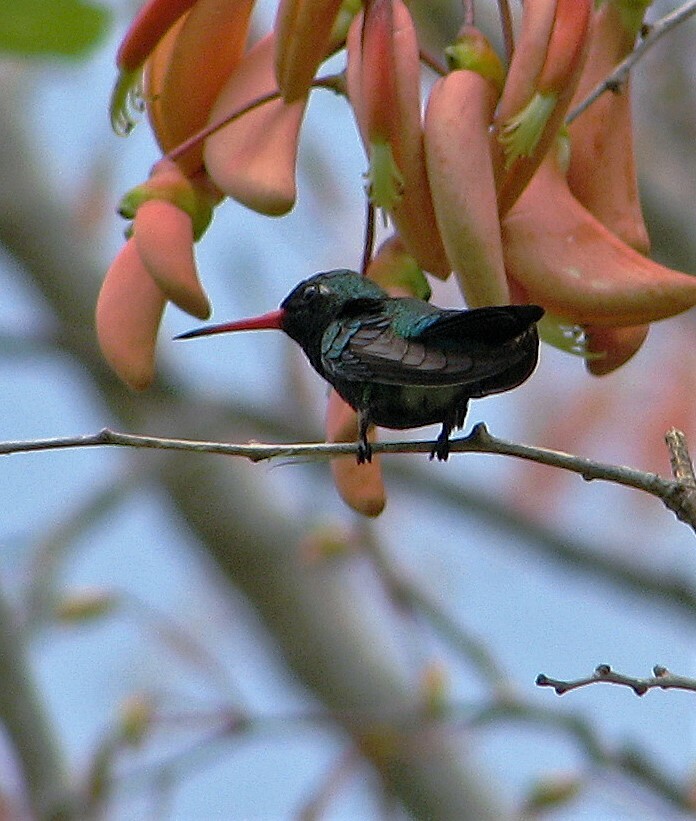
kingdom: Animalia
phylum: Chordata
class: Aves
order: Apodiformes
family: Trochilidae
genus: Chlorostilbon
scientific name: Chlorostilbon lucidus
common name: Glittering-bellied emerald
